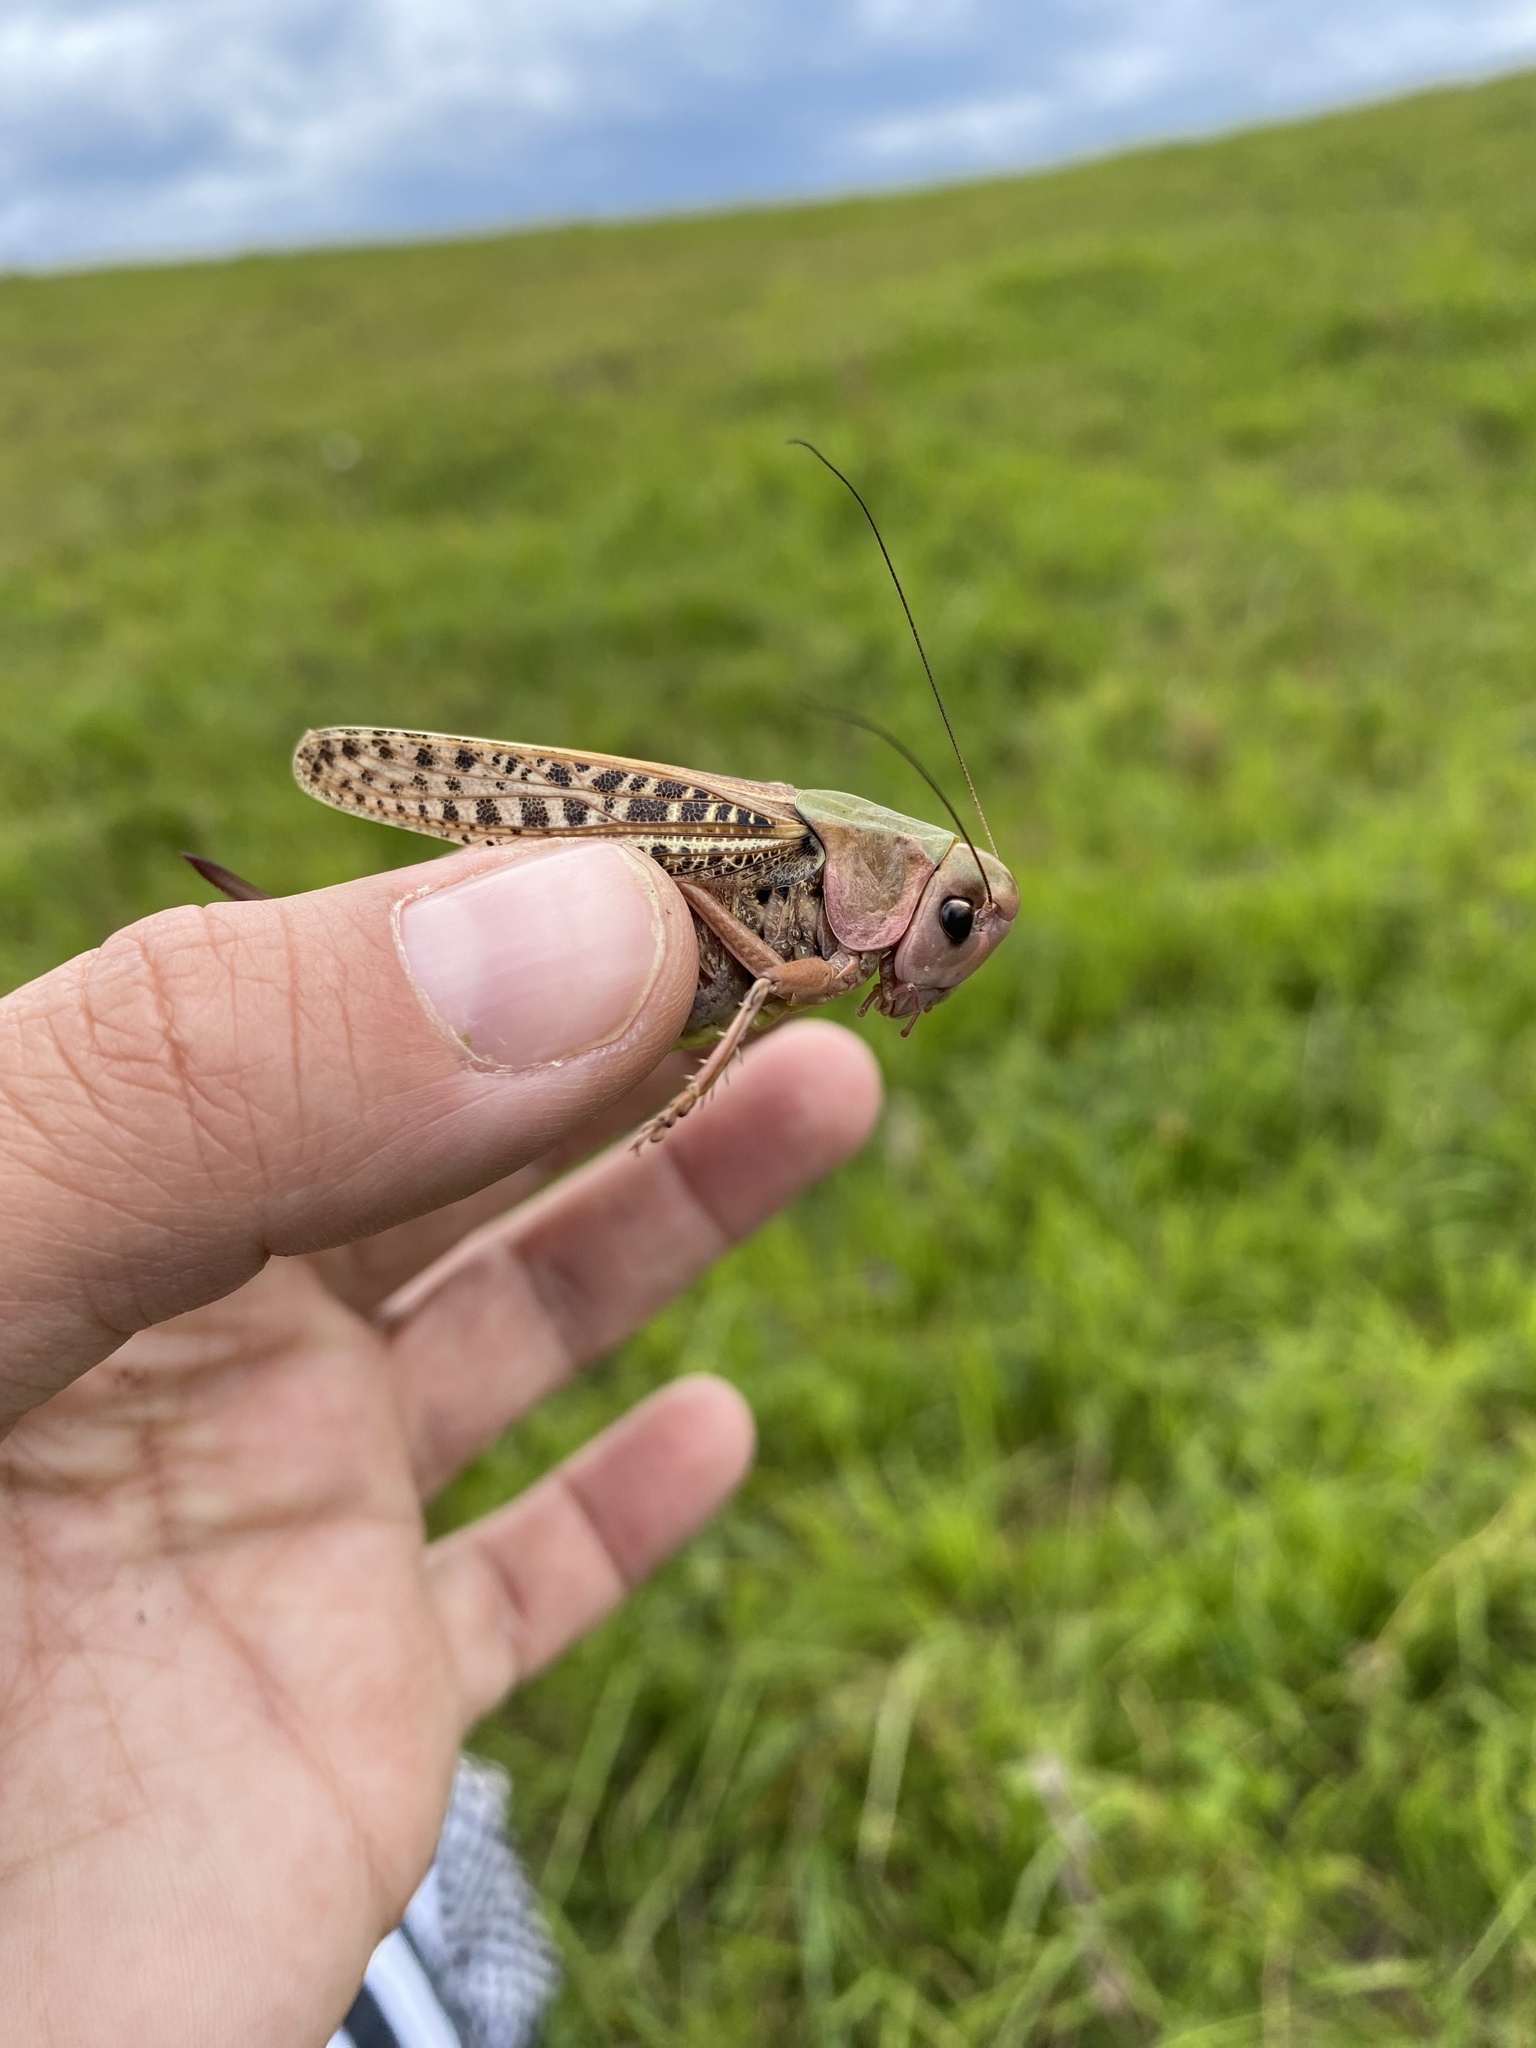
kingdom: Animalia
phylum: Arthropoda
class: Insecta
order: Orthoptera
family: Tettigoniidae
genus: Decticus
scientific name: Decticus verrucivorus
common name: Wart-biter
